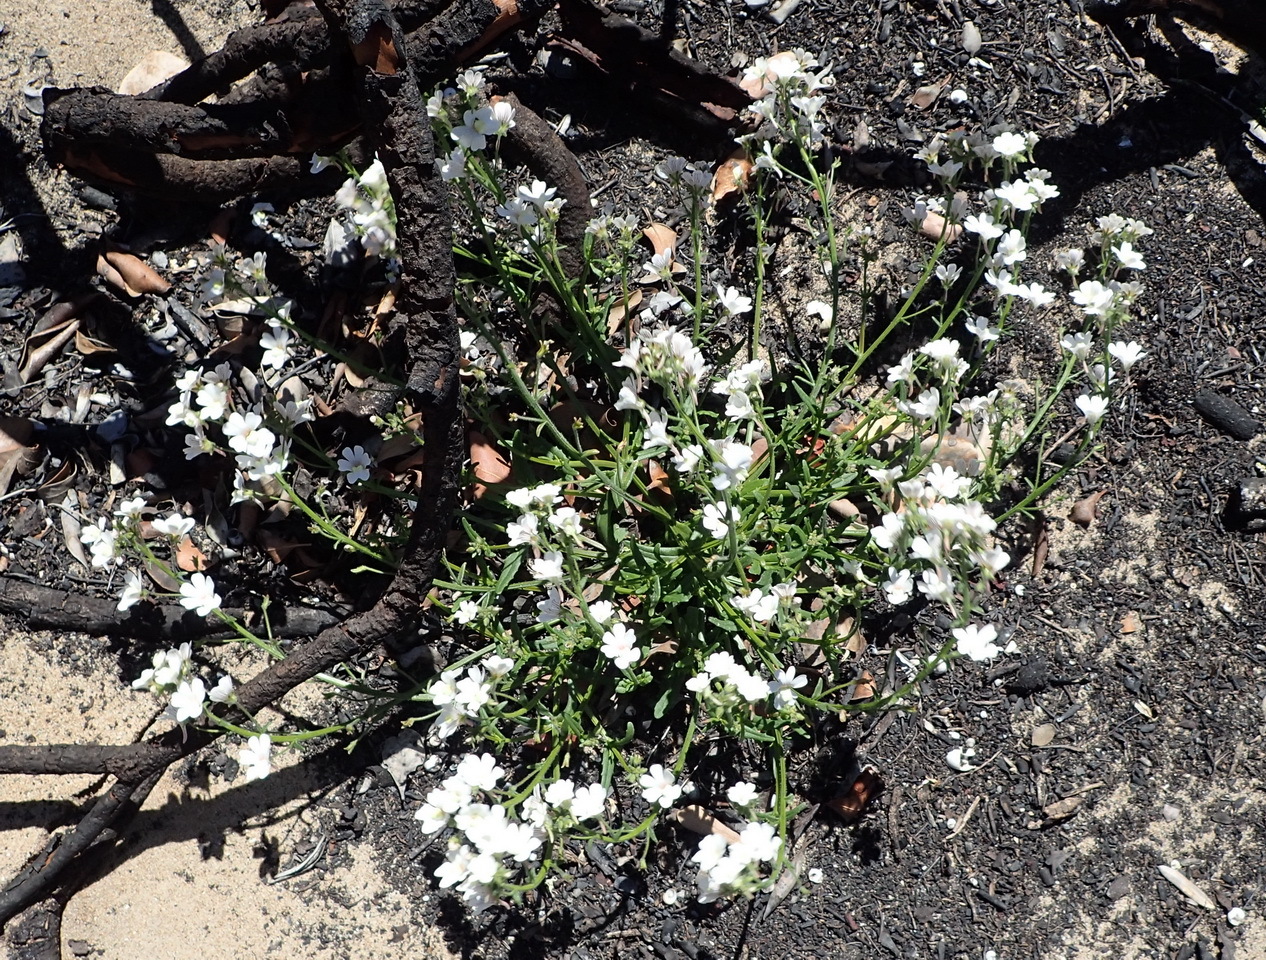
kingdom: Plantae
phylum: Tracheophyta
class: Magnoliopsida
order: Lamiales
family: Scrophulariaceae
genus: Nemesia
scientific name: Nemesia bicornis
